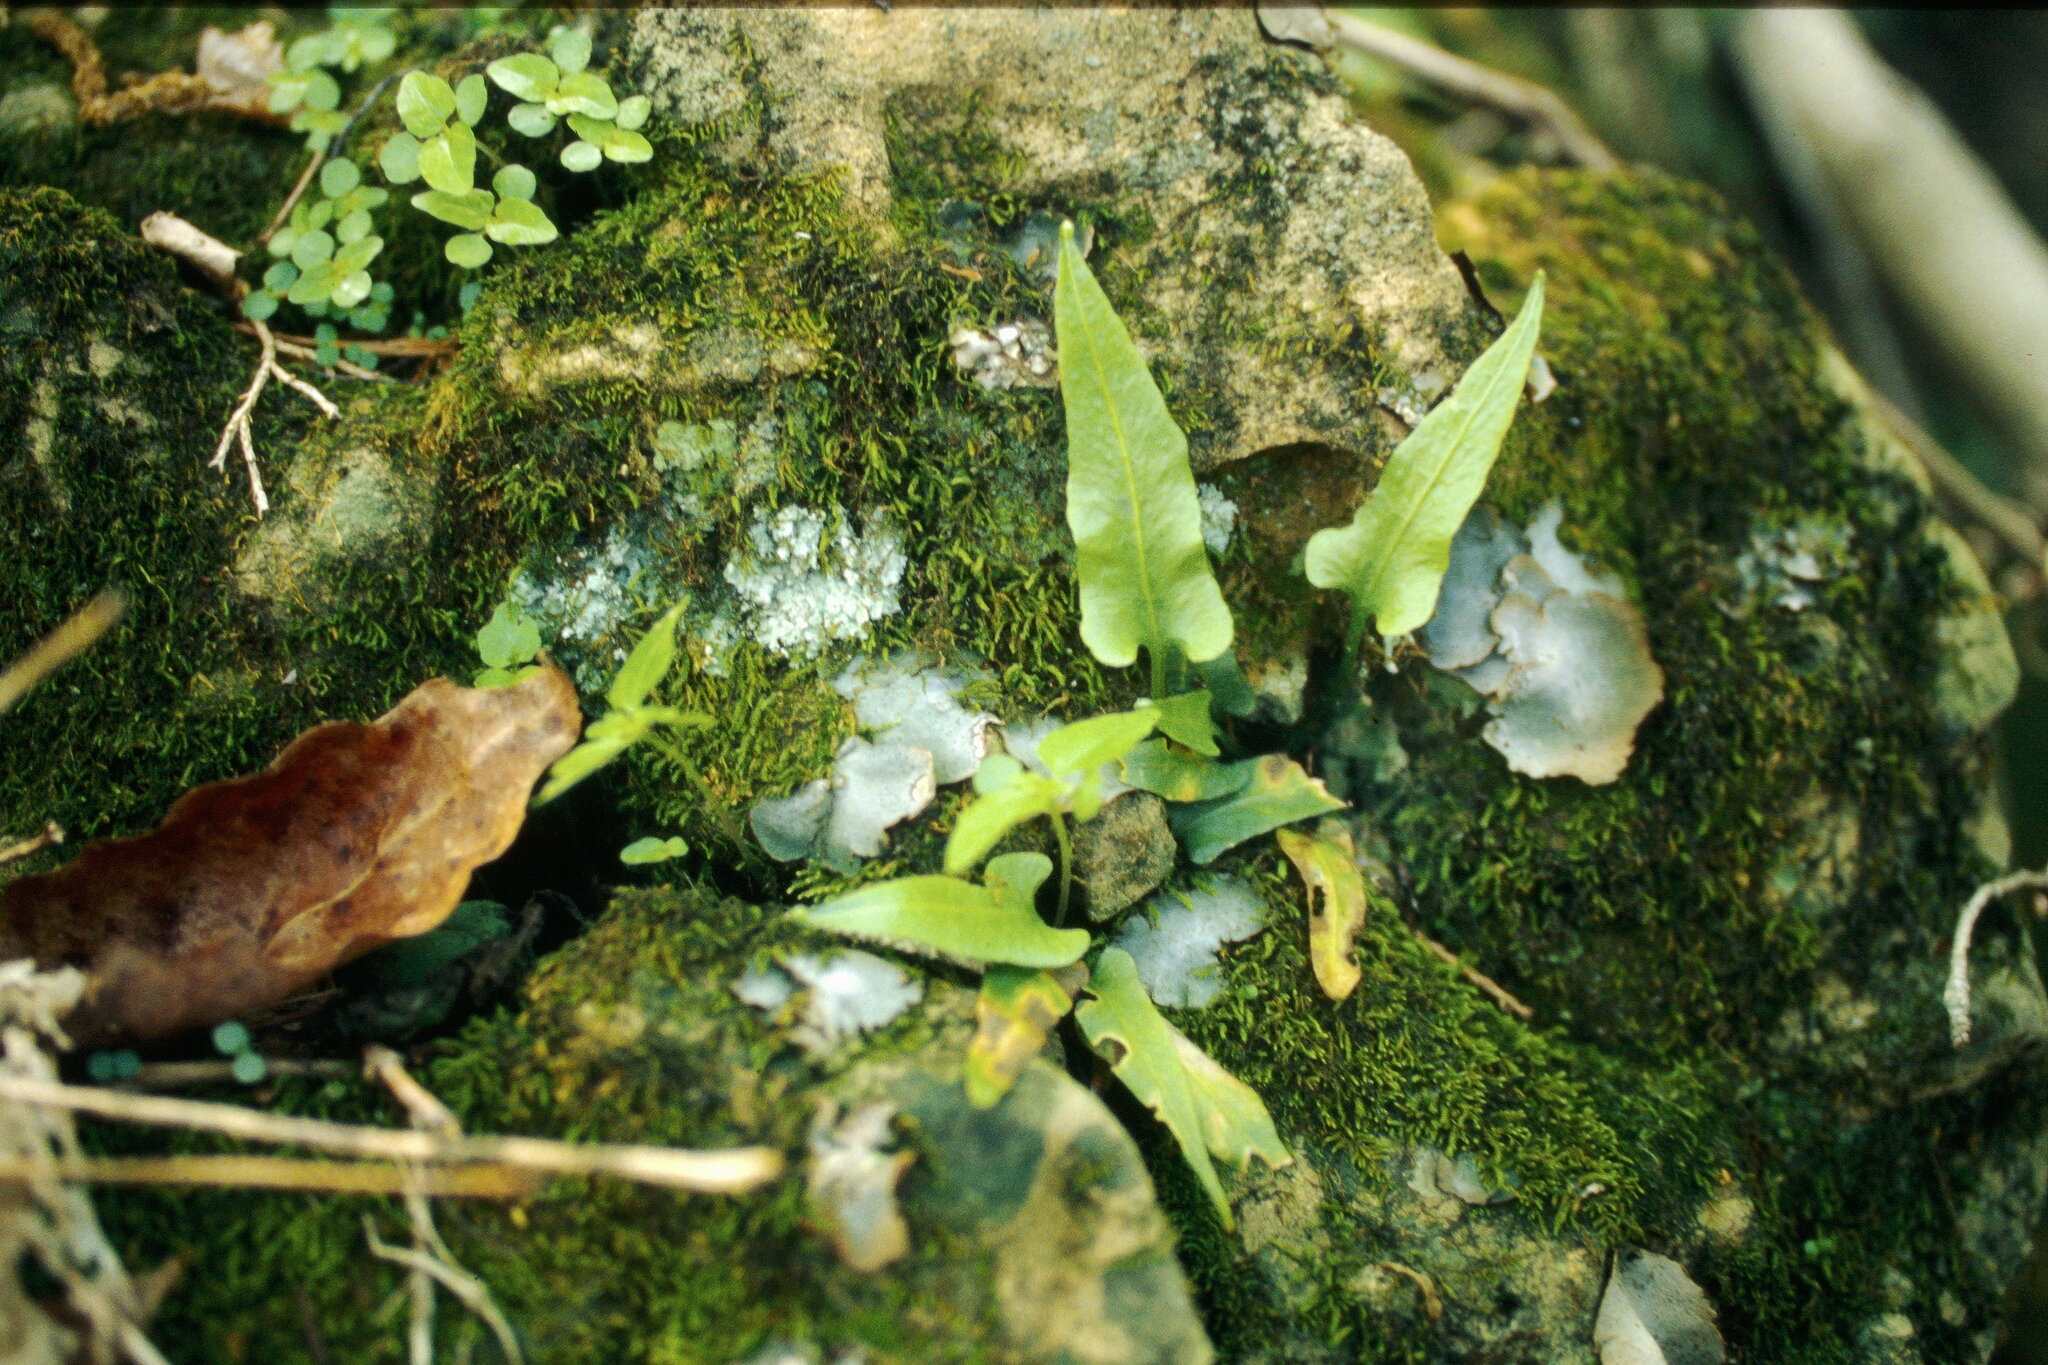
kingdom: Plantae
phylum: Tracheophyta
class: Polypodiopsida
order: Polypodiales
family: Aspleniaceae
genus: Asplenium
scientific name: Asplenium rhizophyllum
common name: Walking fern
